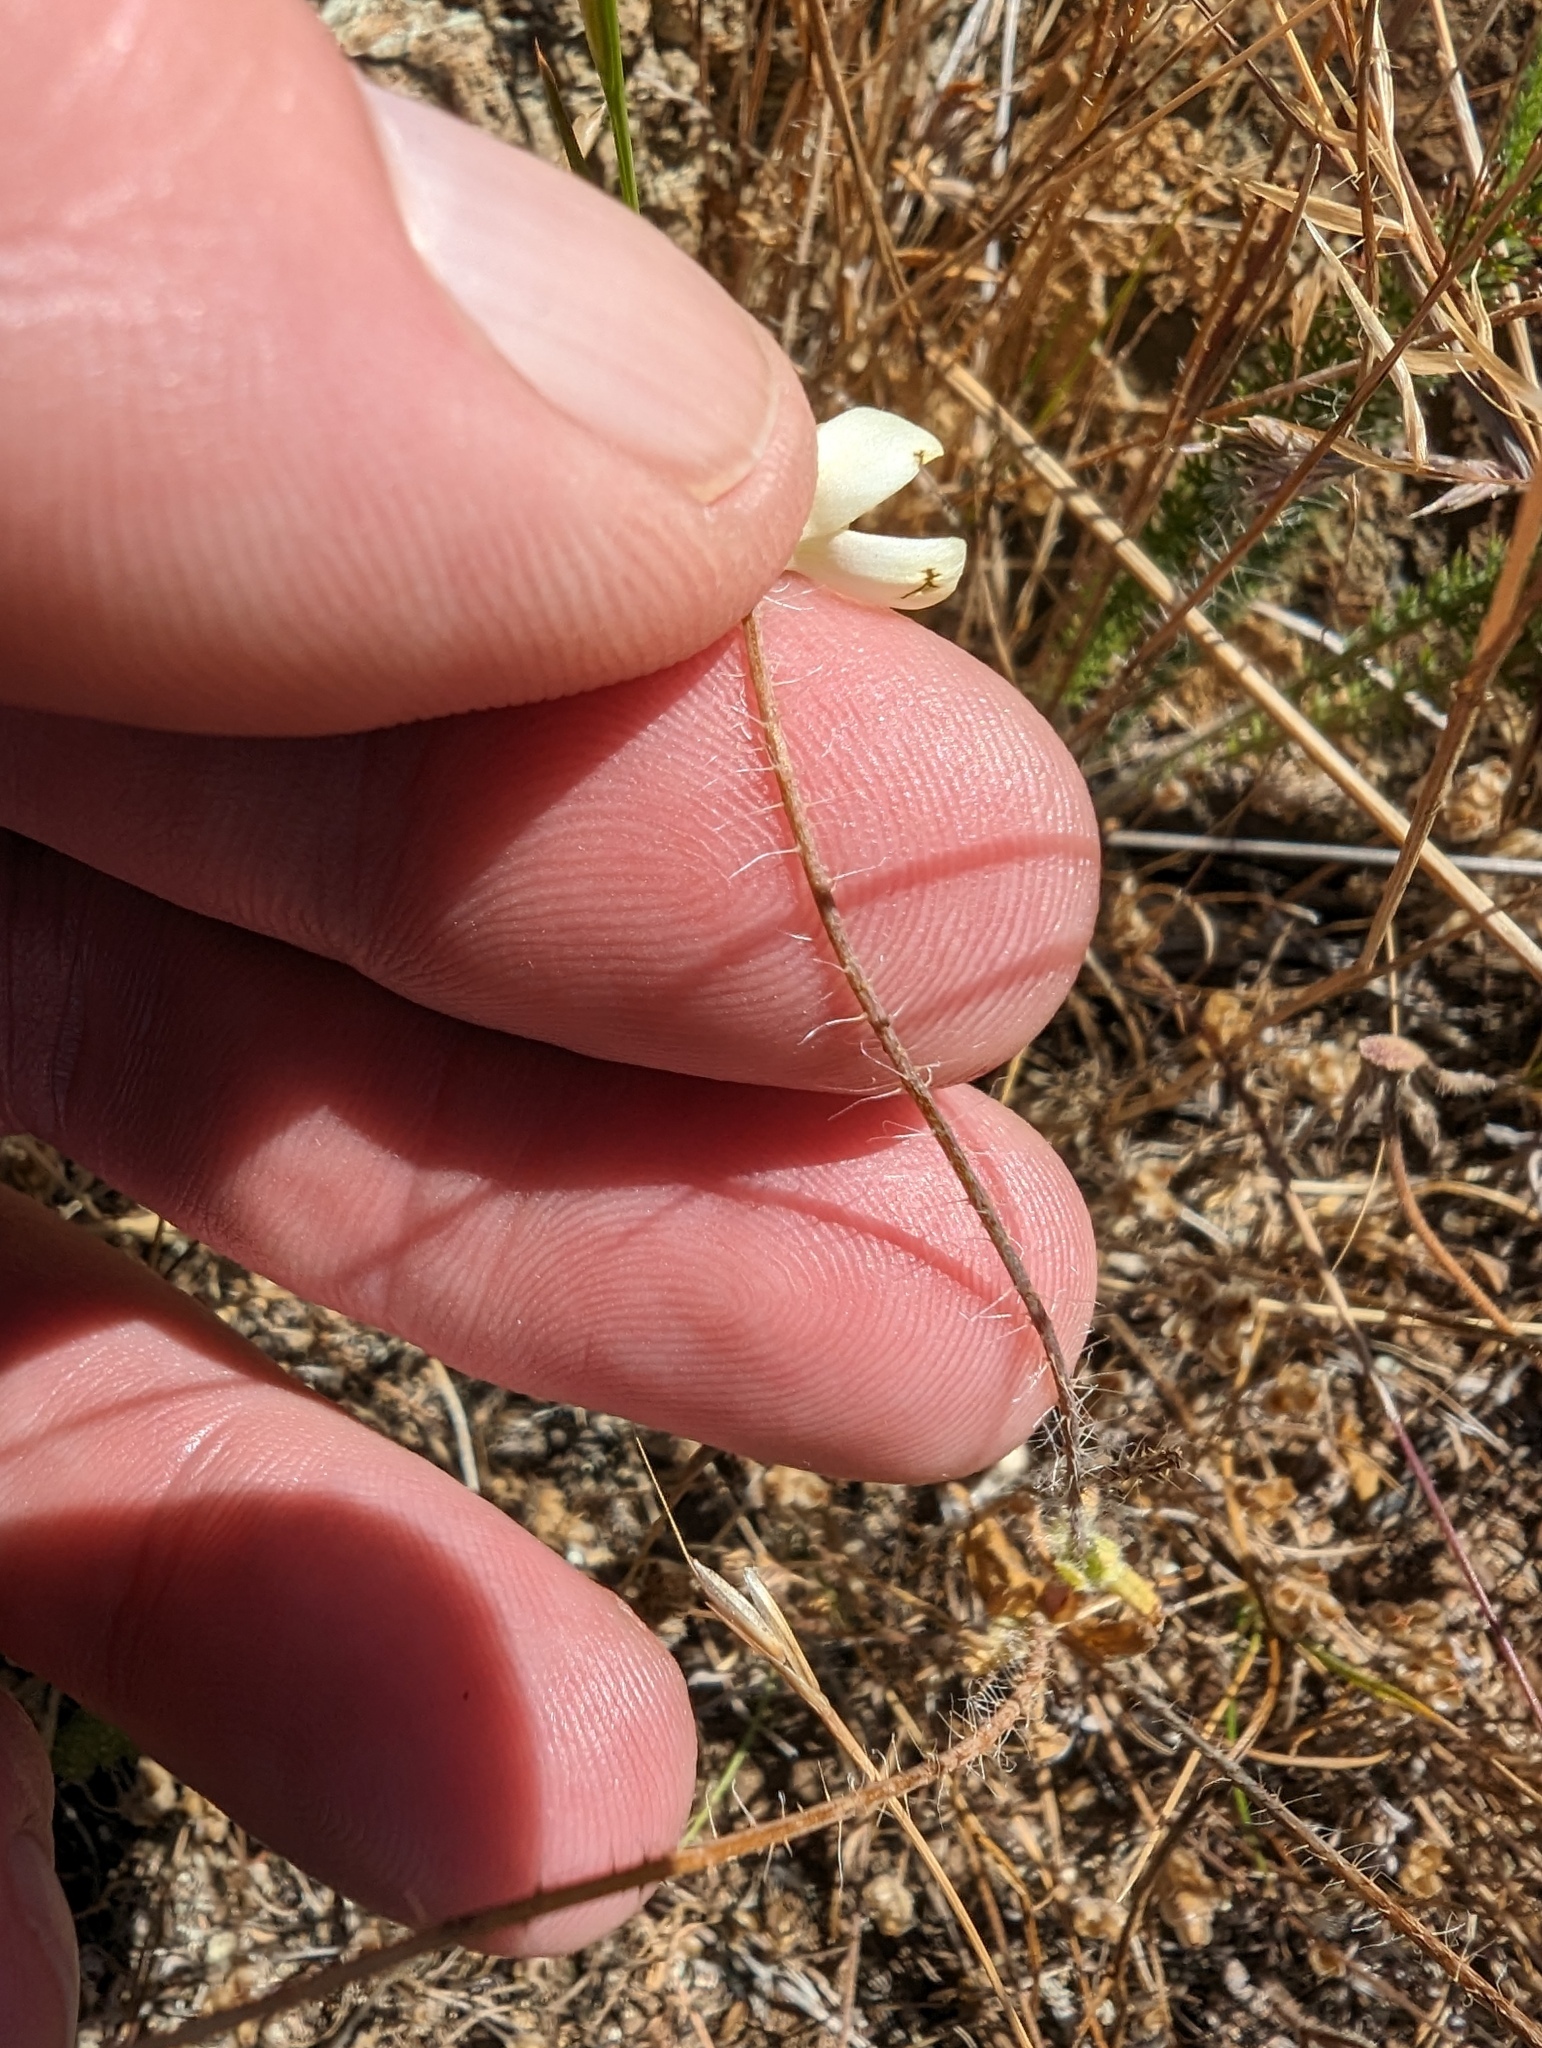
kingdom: Plantae
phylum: Tracheophyta
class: Magnoliopsida
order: Ranunculales
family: Papaveraceae
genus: Platystemon
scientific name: Platystemon californicus
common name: Cream-cups
